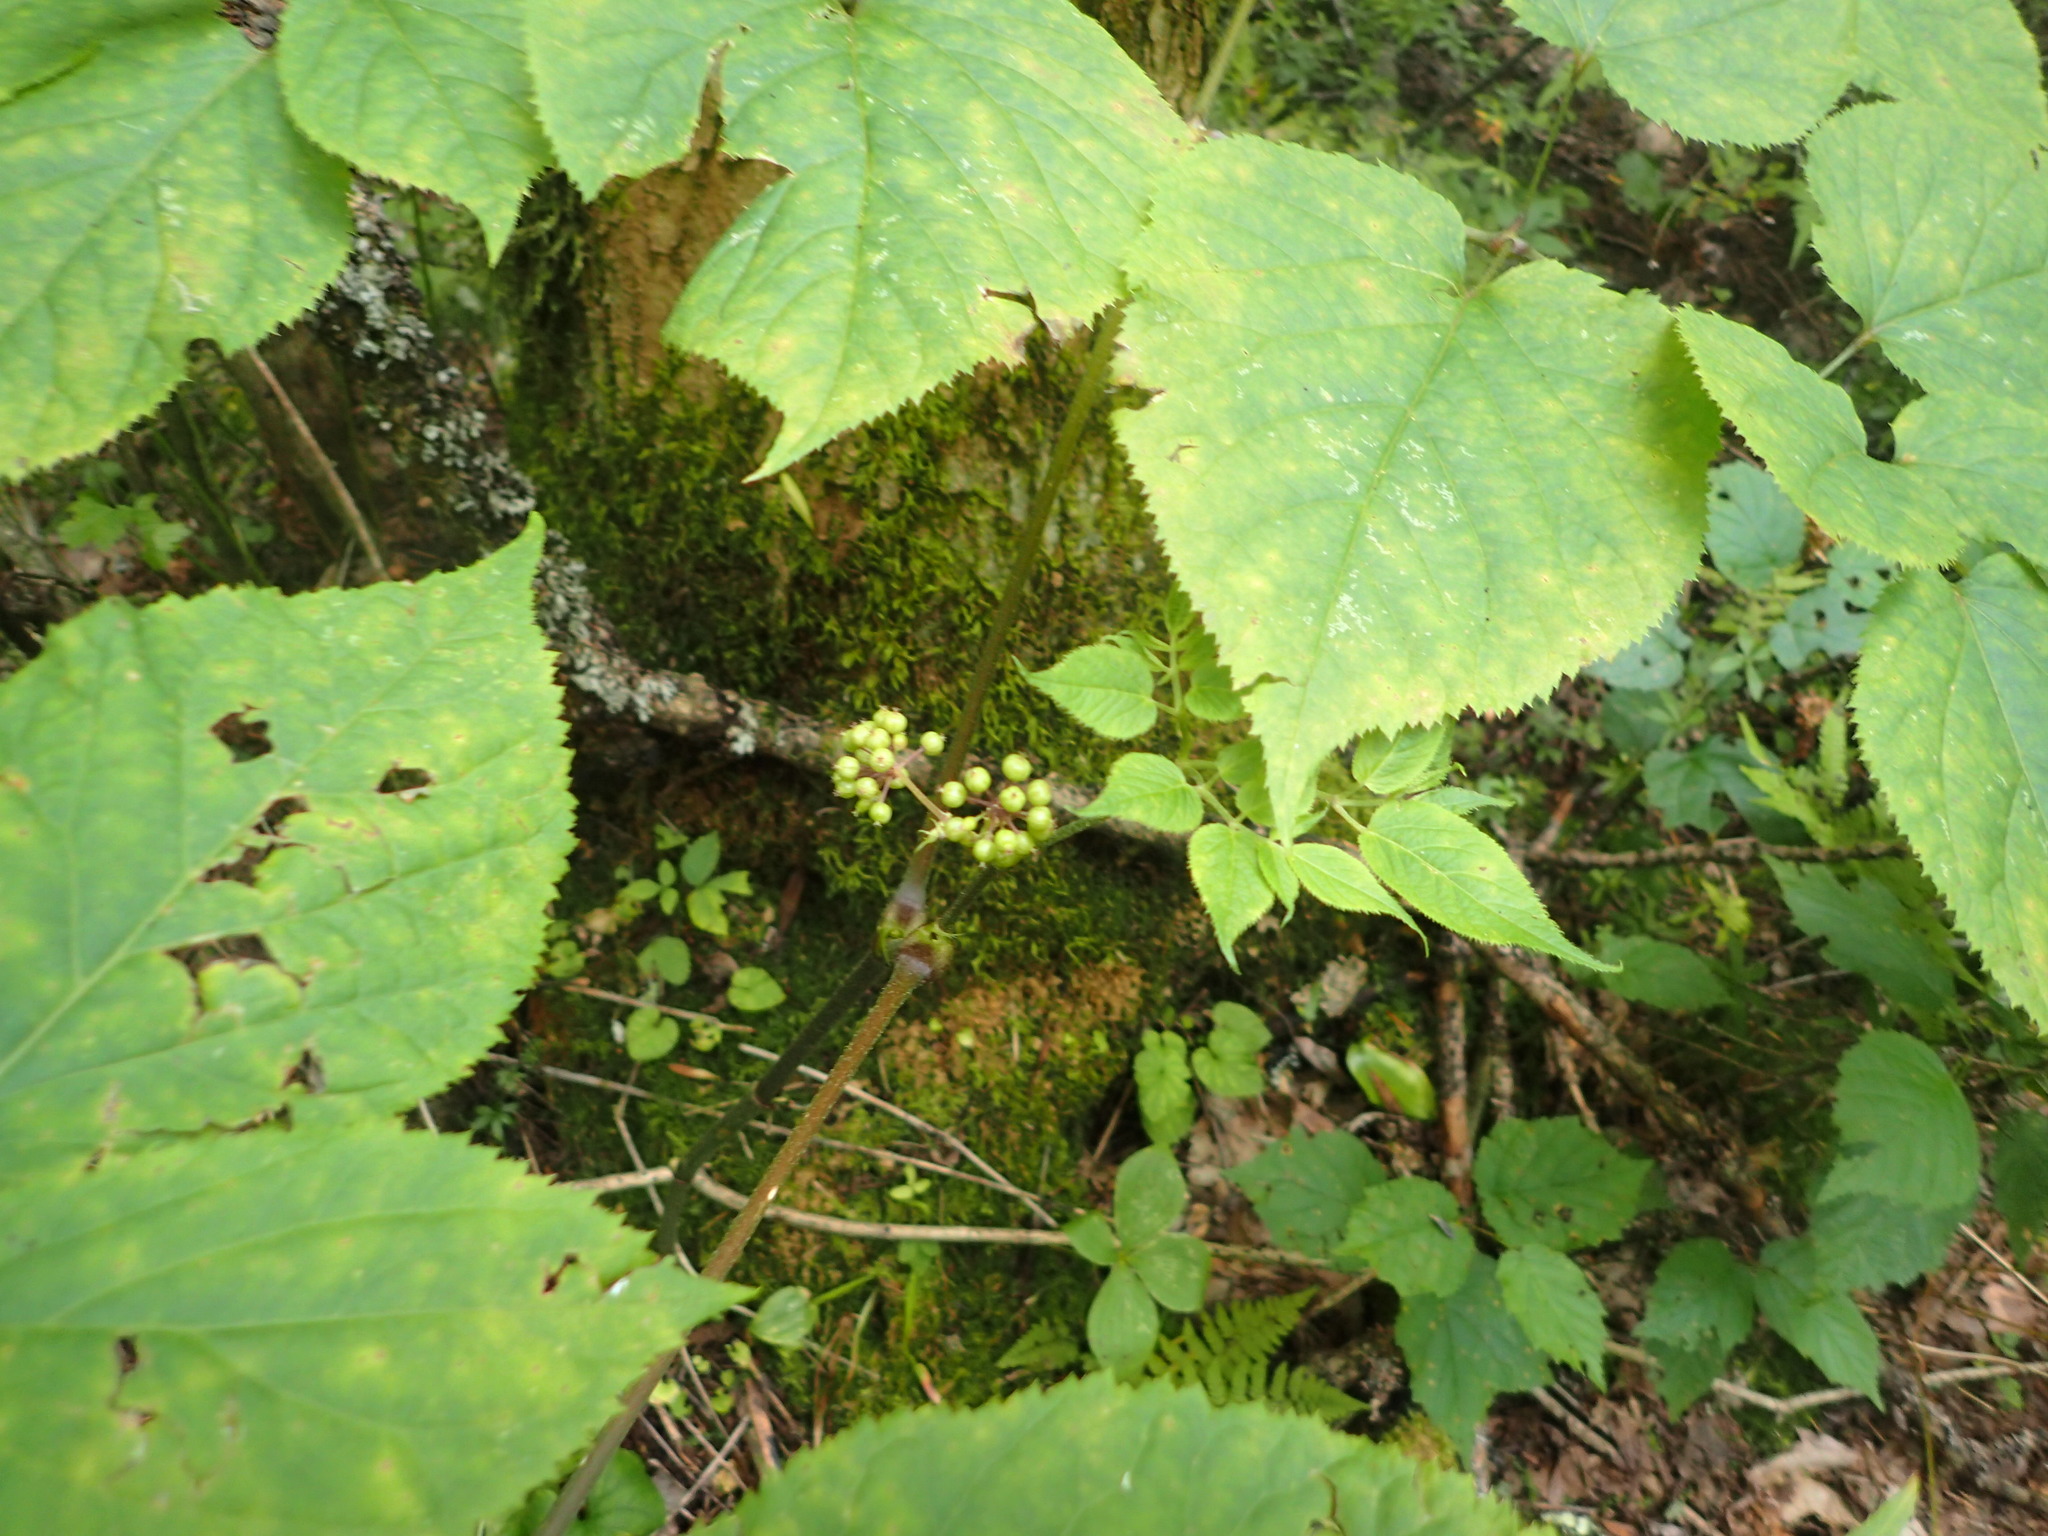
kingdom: Plantae
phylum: Tracheophyta
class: Magnoliopsida
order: Apiales
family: Araliaceae
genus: Aralia
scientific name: Aralia racemosa
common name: American-spikenard
